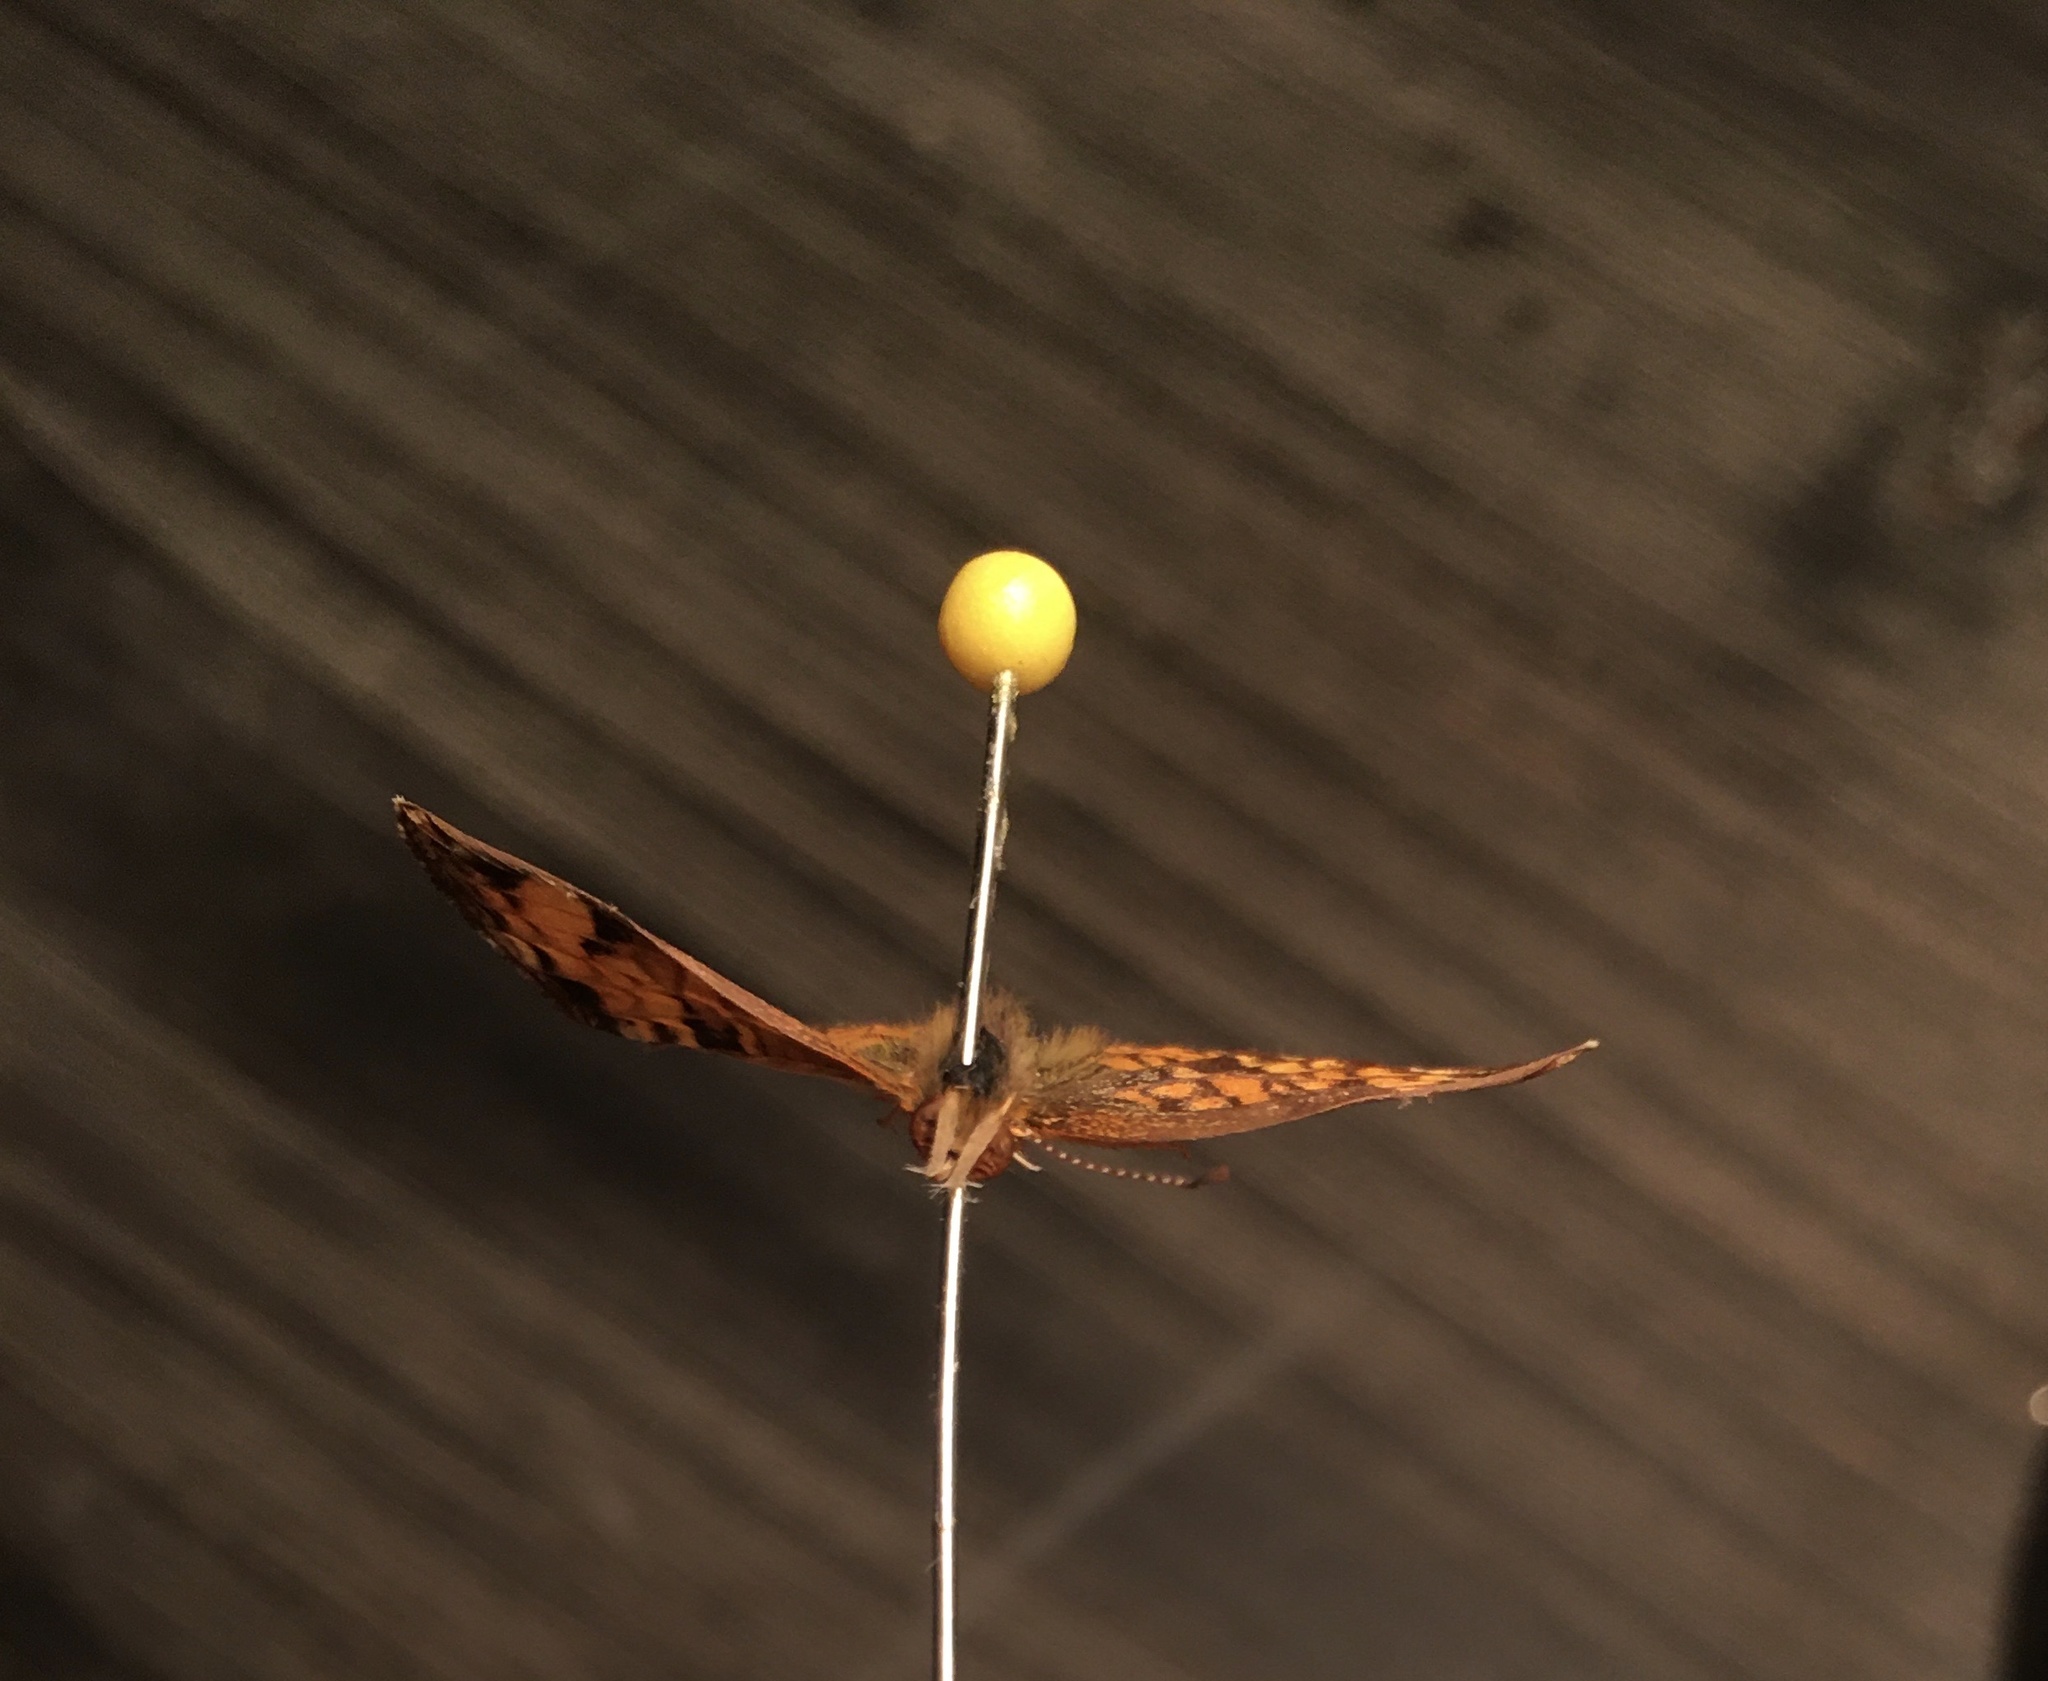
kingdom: Animalia
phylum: Arthropoda
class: Insecta
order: Lepidoptera
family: Nymphalidae
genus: Phyciodes
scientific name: Phyciodes tharos
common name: Pearl crescent
